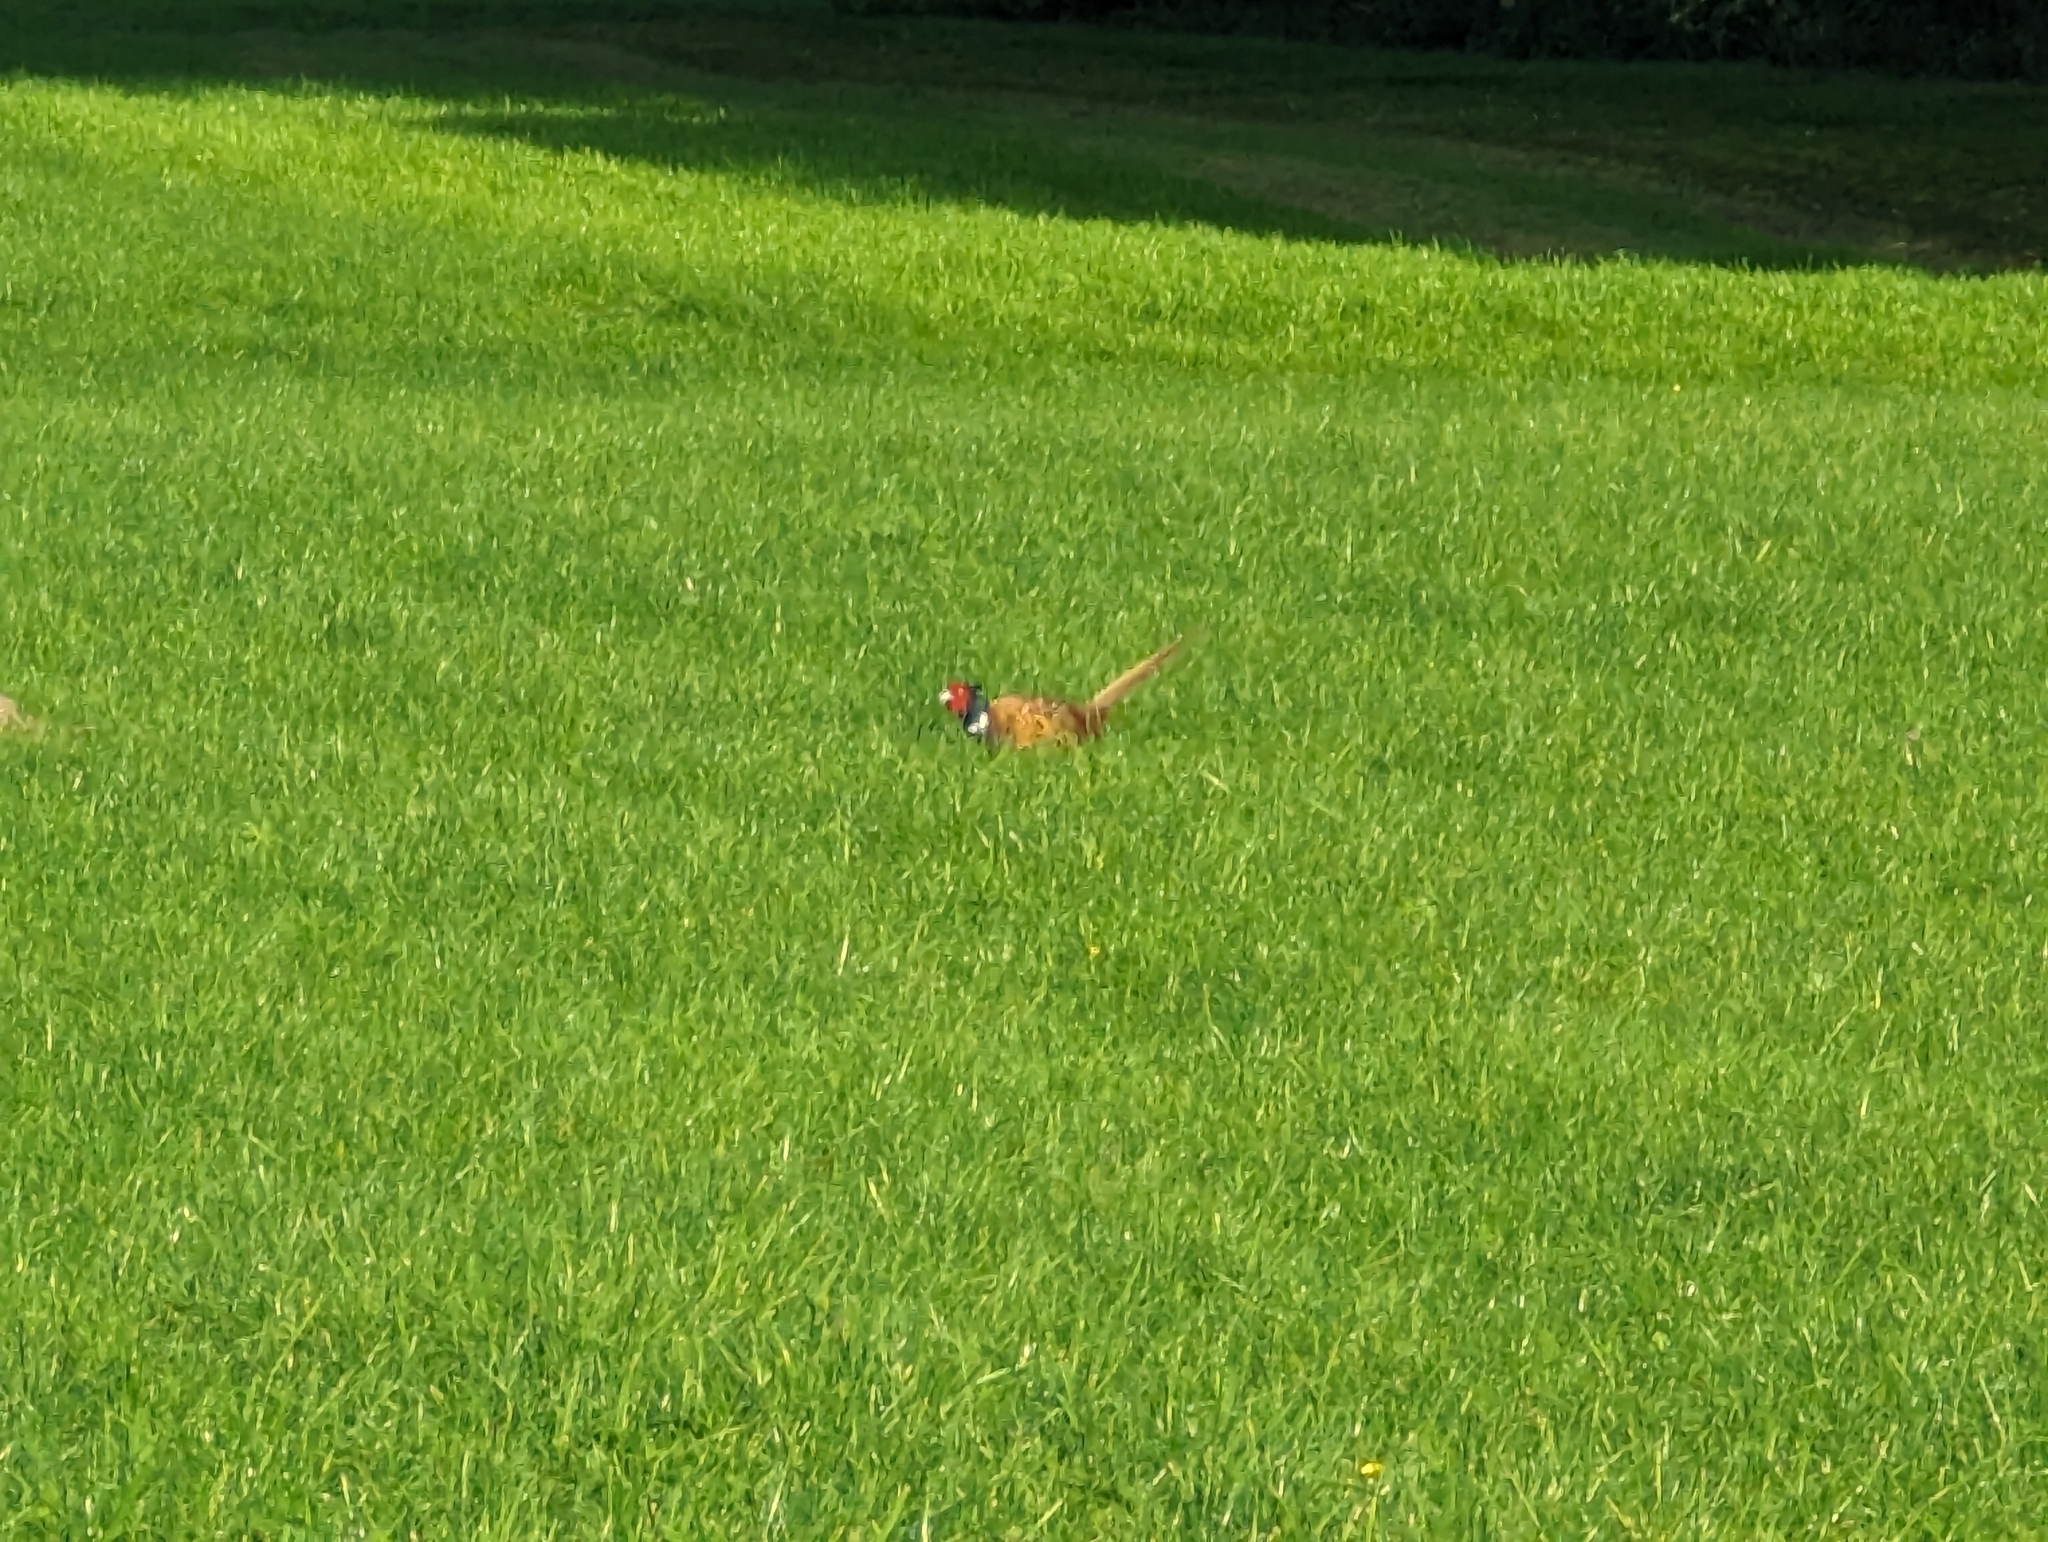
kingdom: Animalia
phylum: Chordata
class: Aves
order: Galliformes
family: Phasianidae
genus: Phasianus
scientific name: Phasianus colchicus
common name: Common pheasant
